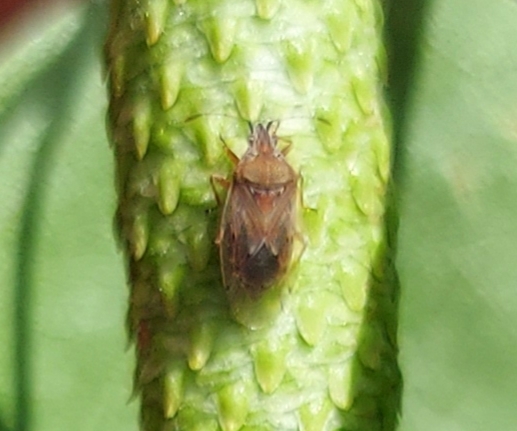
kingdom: Animalia
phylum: Arthropoda
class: Insecta
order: Hemiptera
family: Lygaeidae
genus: Kleidocerys
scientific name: Kleidocerys resedae
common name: Birch catkin bug
